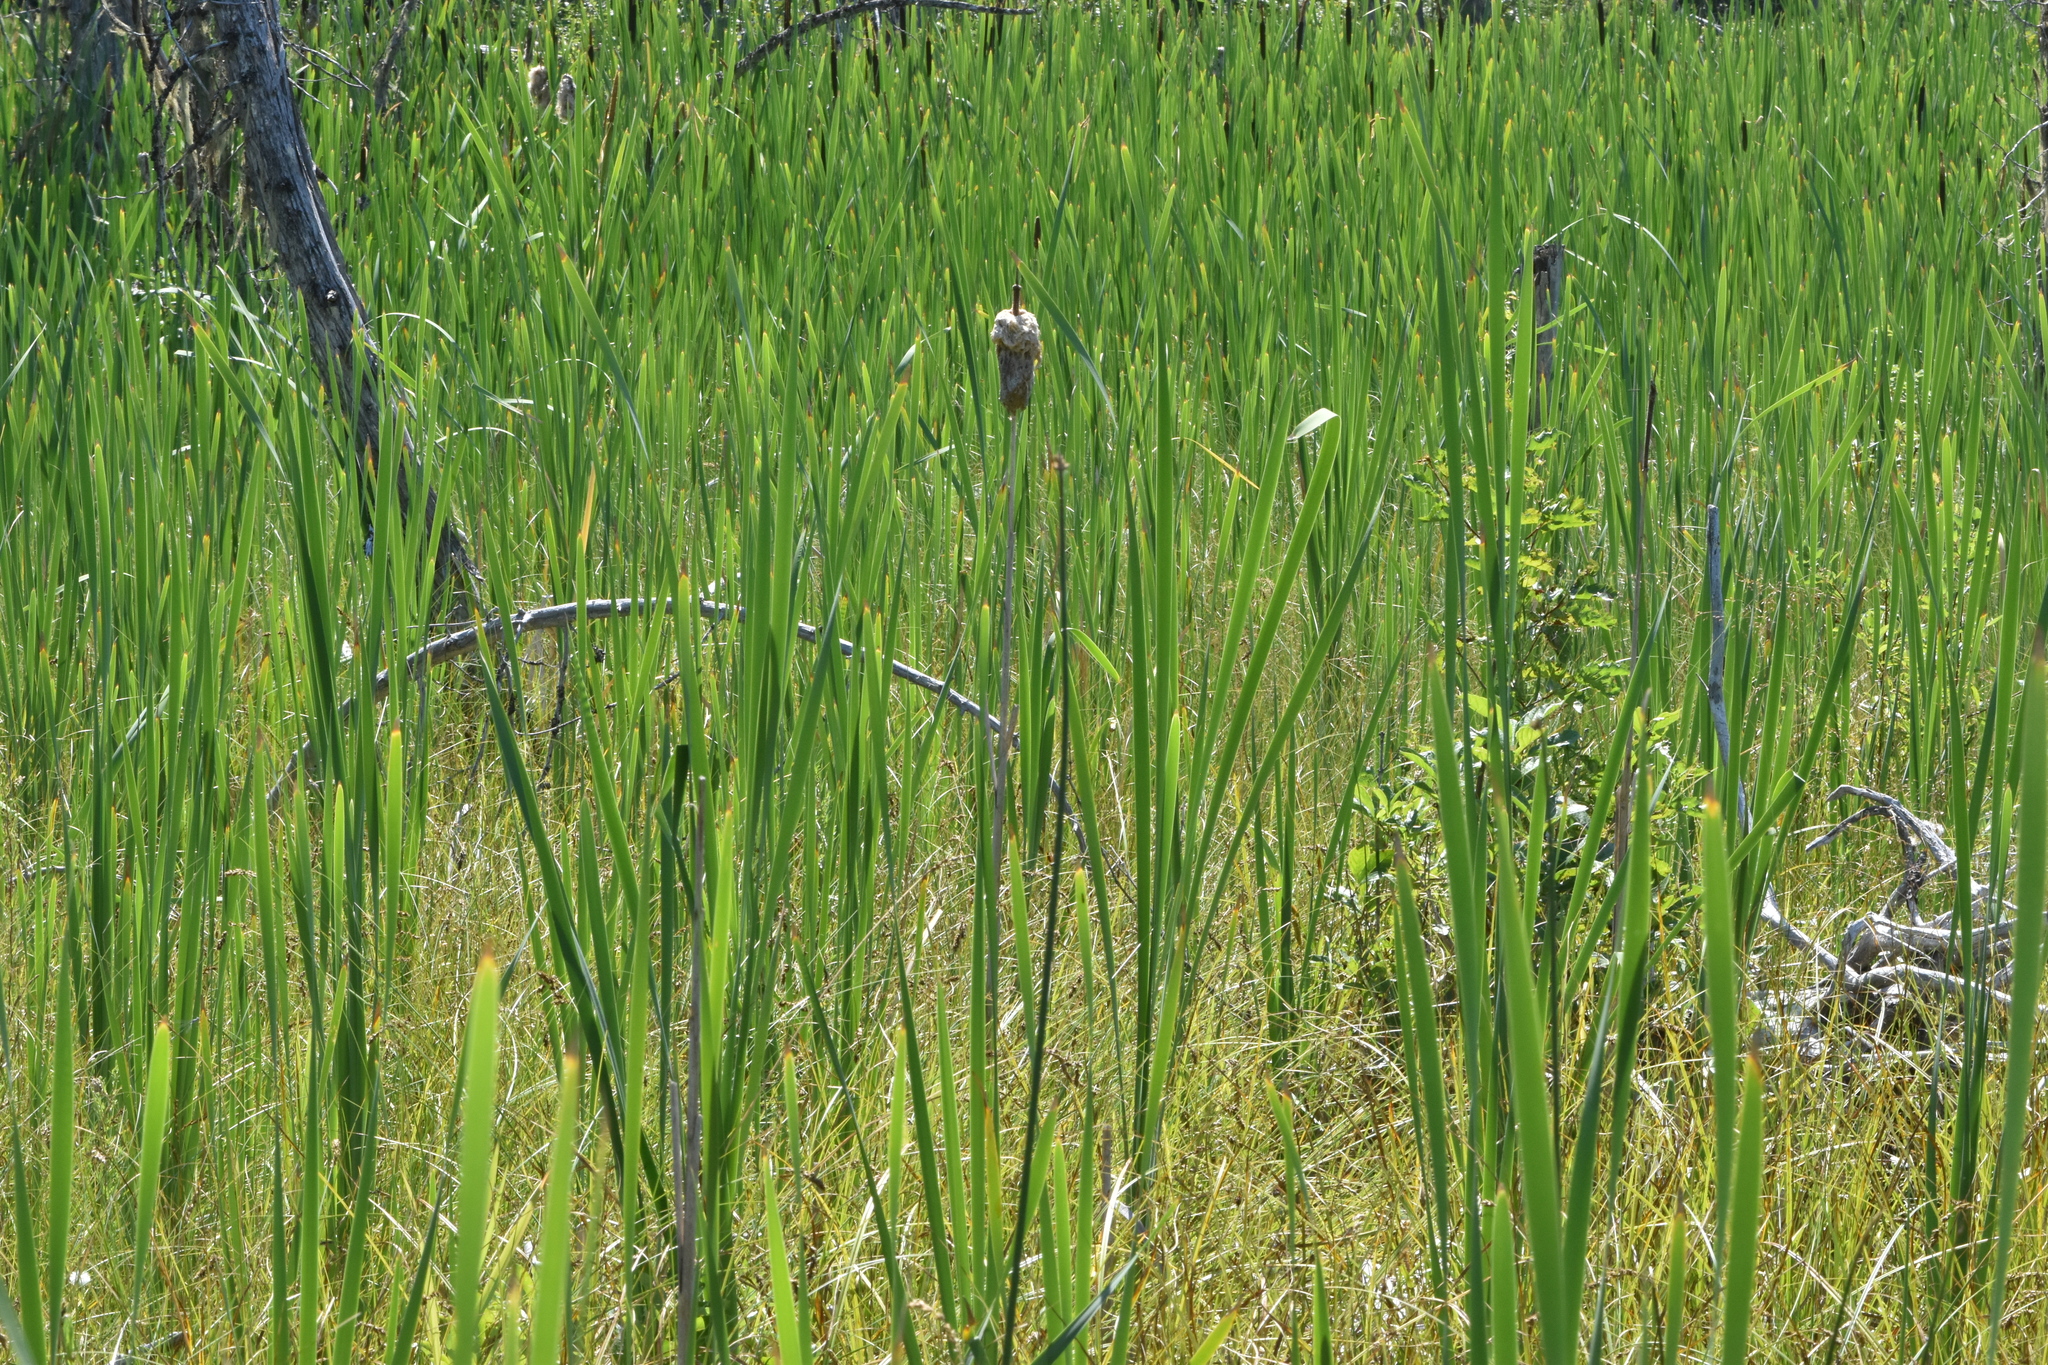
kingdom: Plantae
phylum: Tracheophyta
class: Liliopsida
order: Poales
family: Typhaceae
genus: Typha
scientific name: Typha latifolia
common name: Broadleaf cattail
